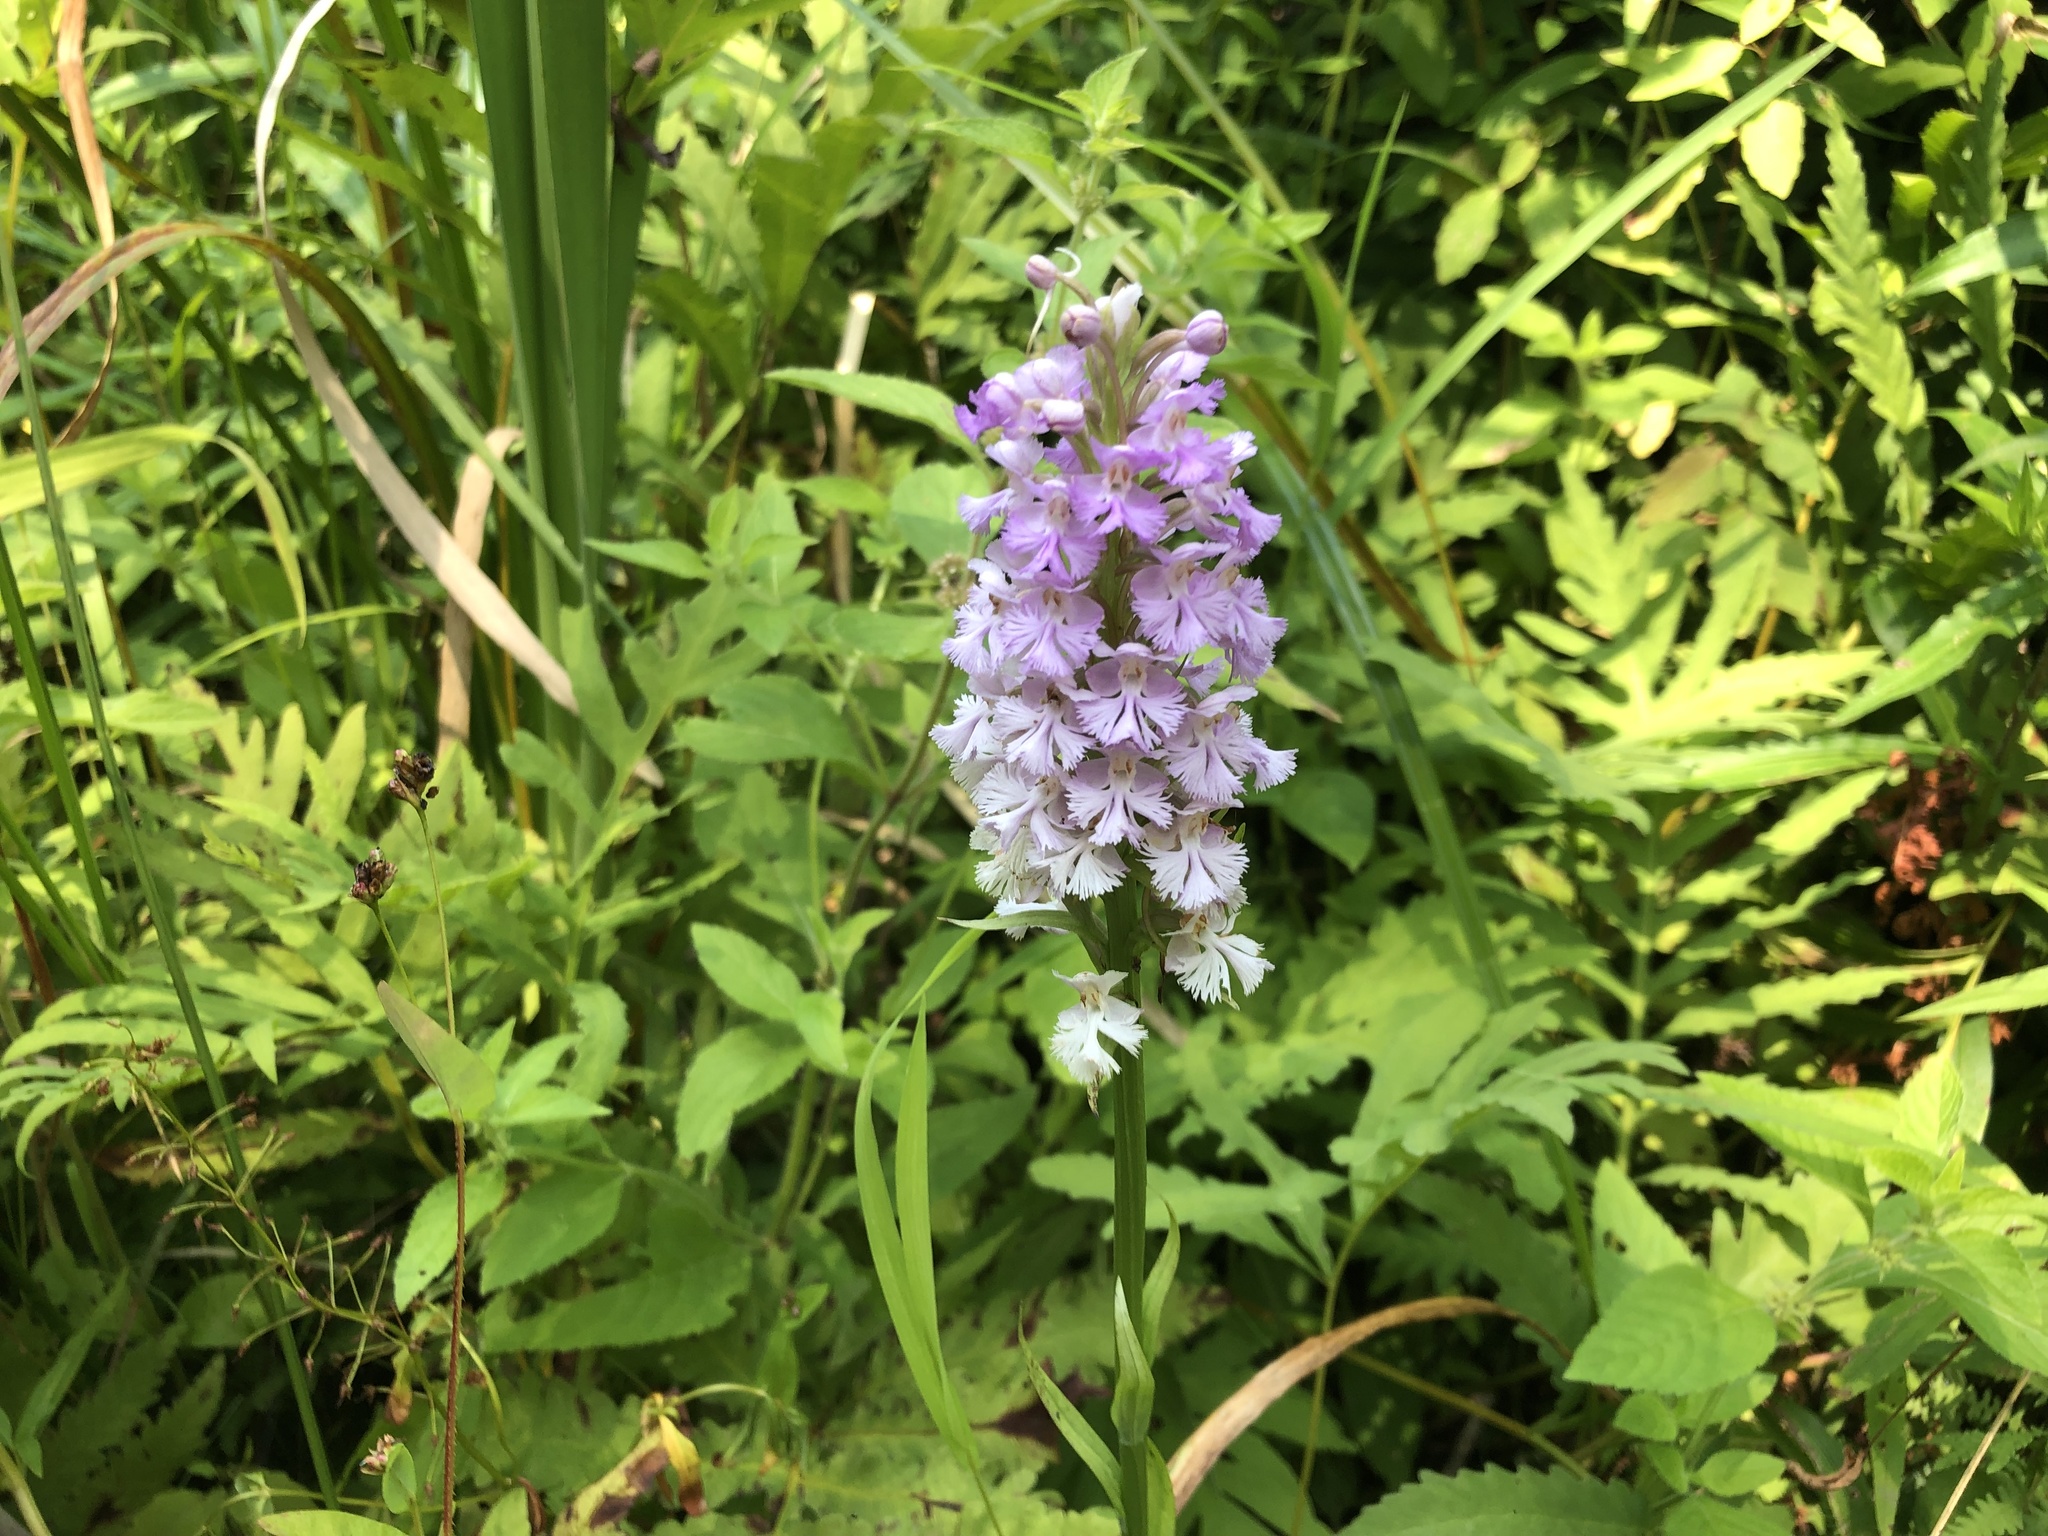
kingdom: Plantae
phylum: Tracheophyta
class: Liliopsida
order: Asparagales
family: Orchidaceae
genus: Platanthera
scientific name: Platanthera psycodes
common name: Lesser purple fringed orchid
